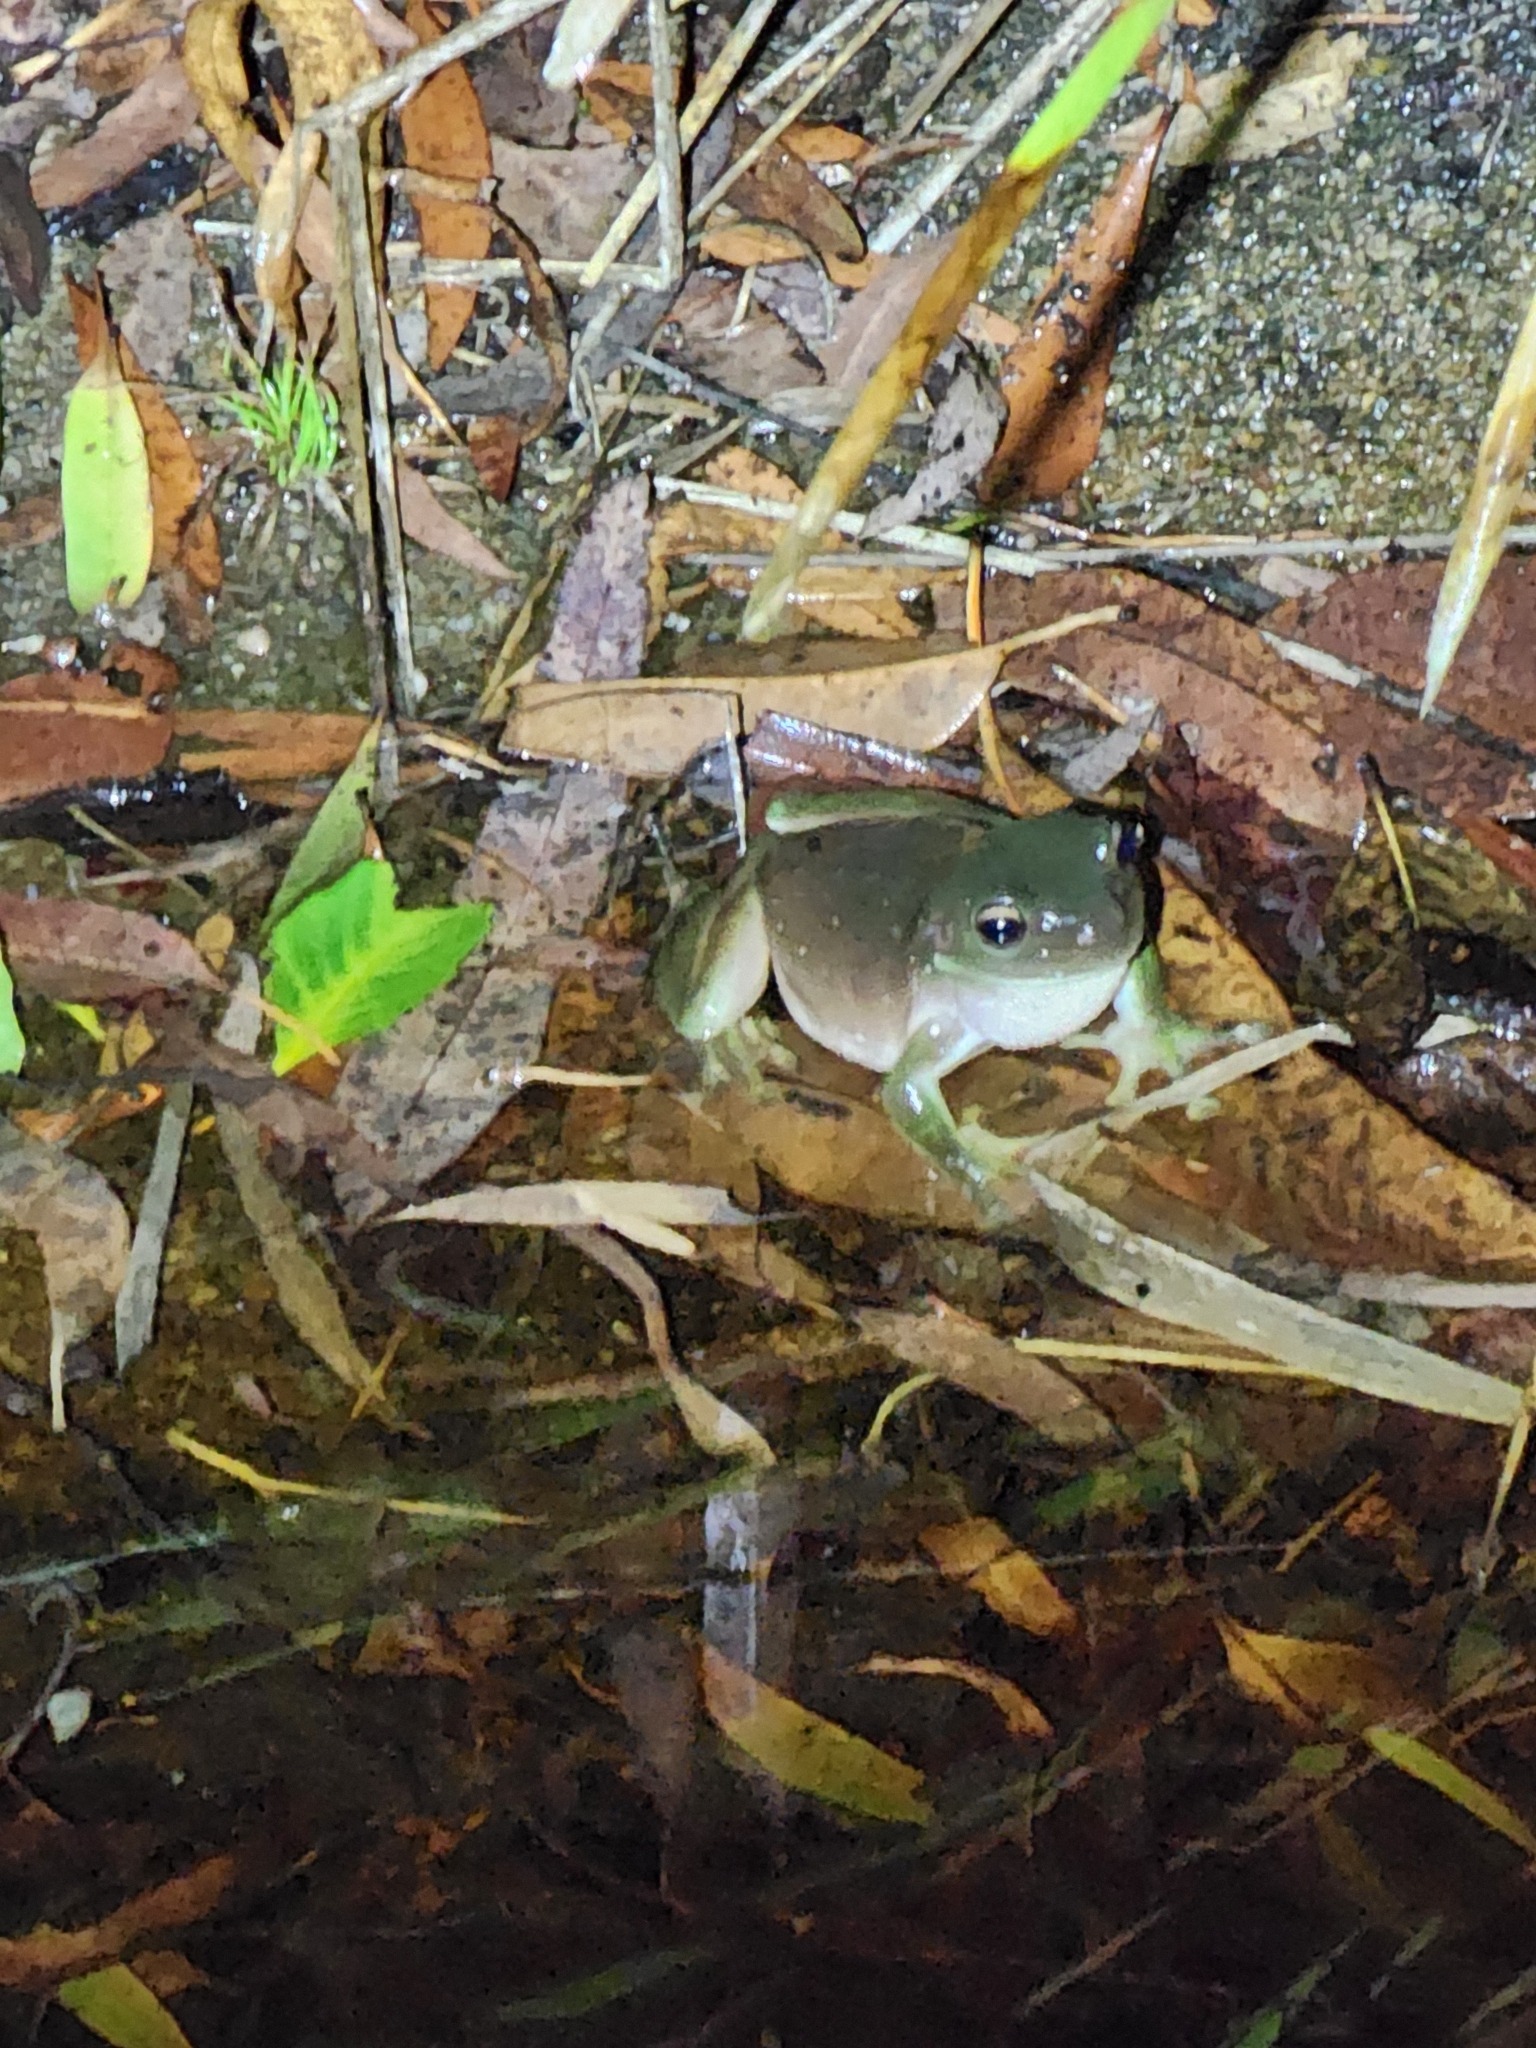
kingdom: Animalia
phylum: Chordata
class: Amphibia
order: Anura
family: Pelodryadidae
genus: Ranoidea
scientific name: Ranoidea caerulea
